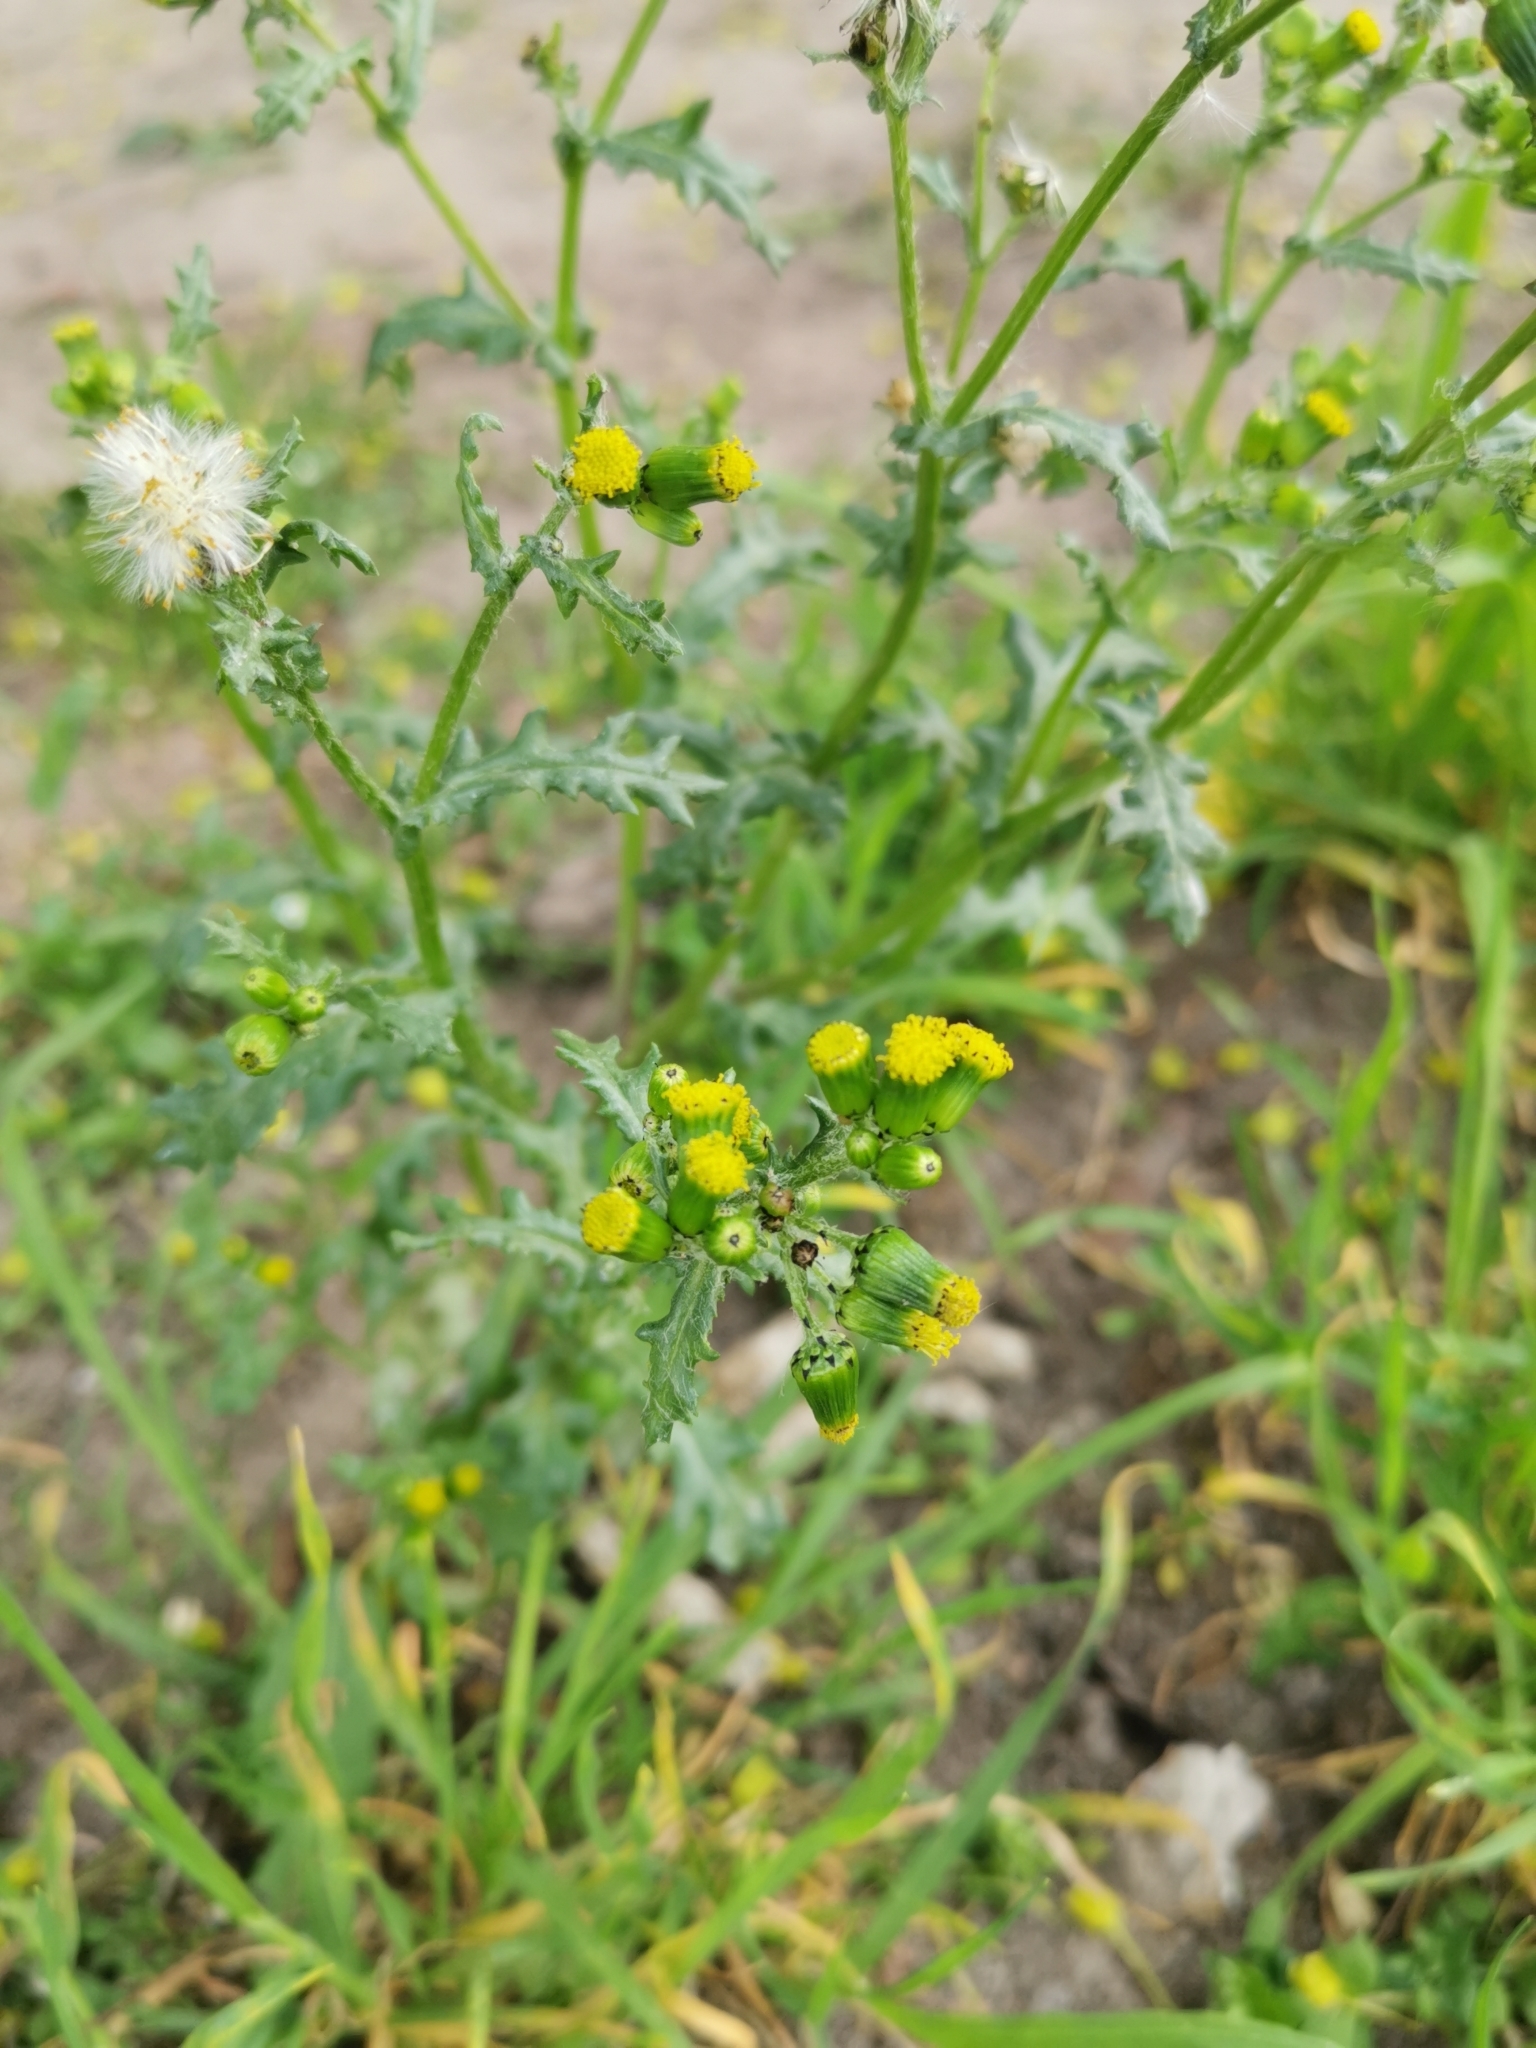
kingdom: Plantae
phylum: Tracheophyta
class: Magnoliopsida
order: Asterales
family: Asteraceae
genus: Senecio
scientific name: Senecio vulgaris
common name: Old-man-in-the-spring
